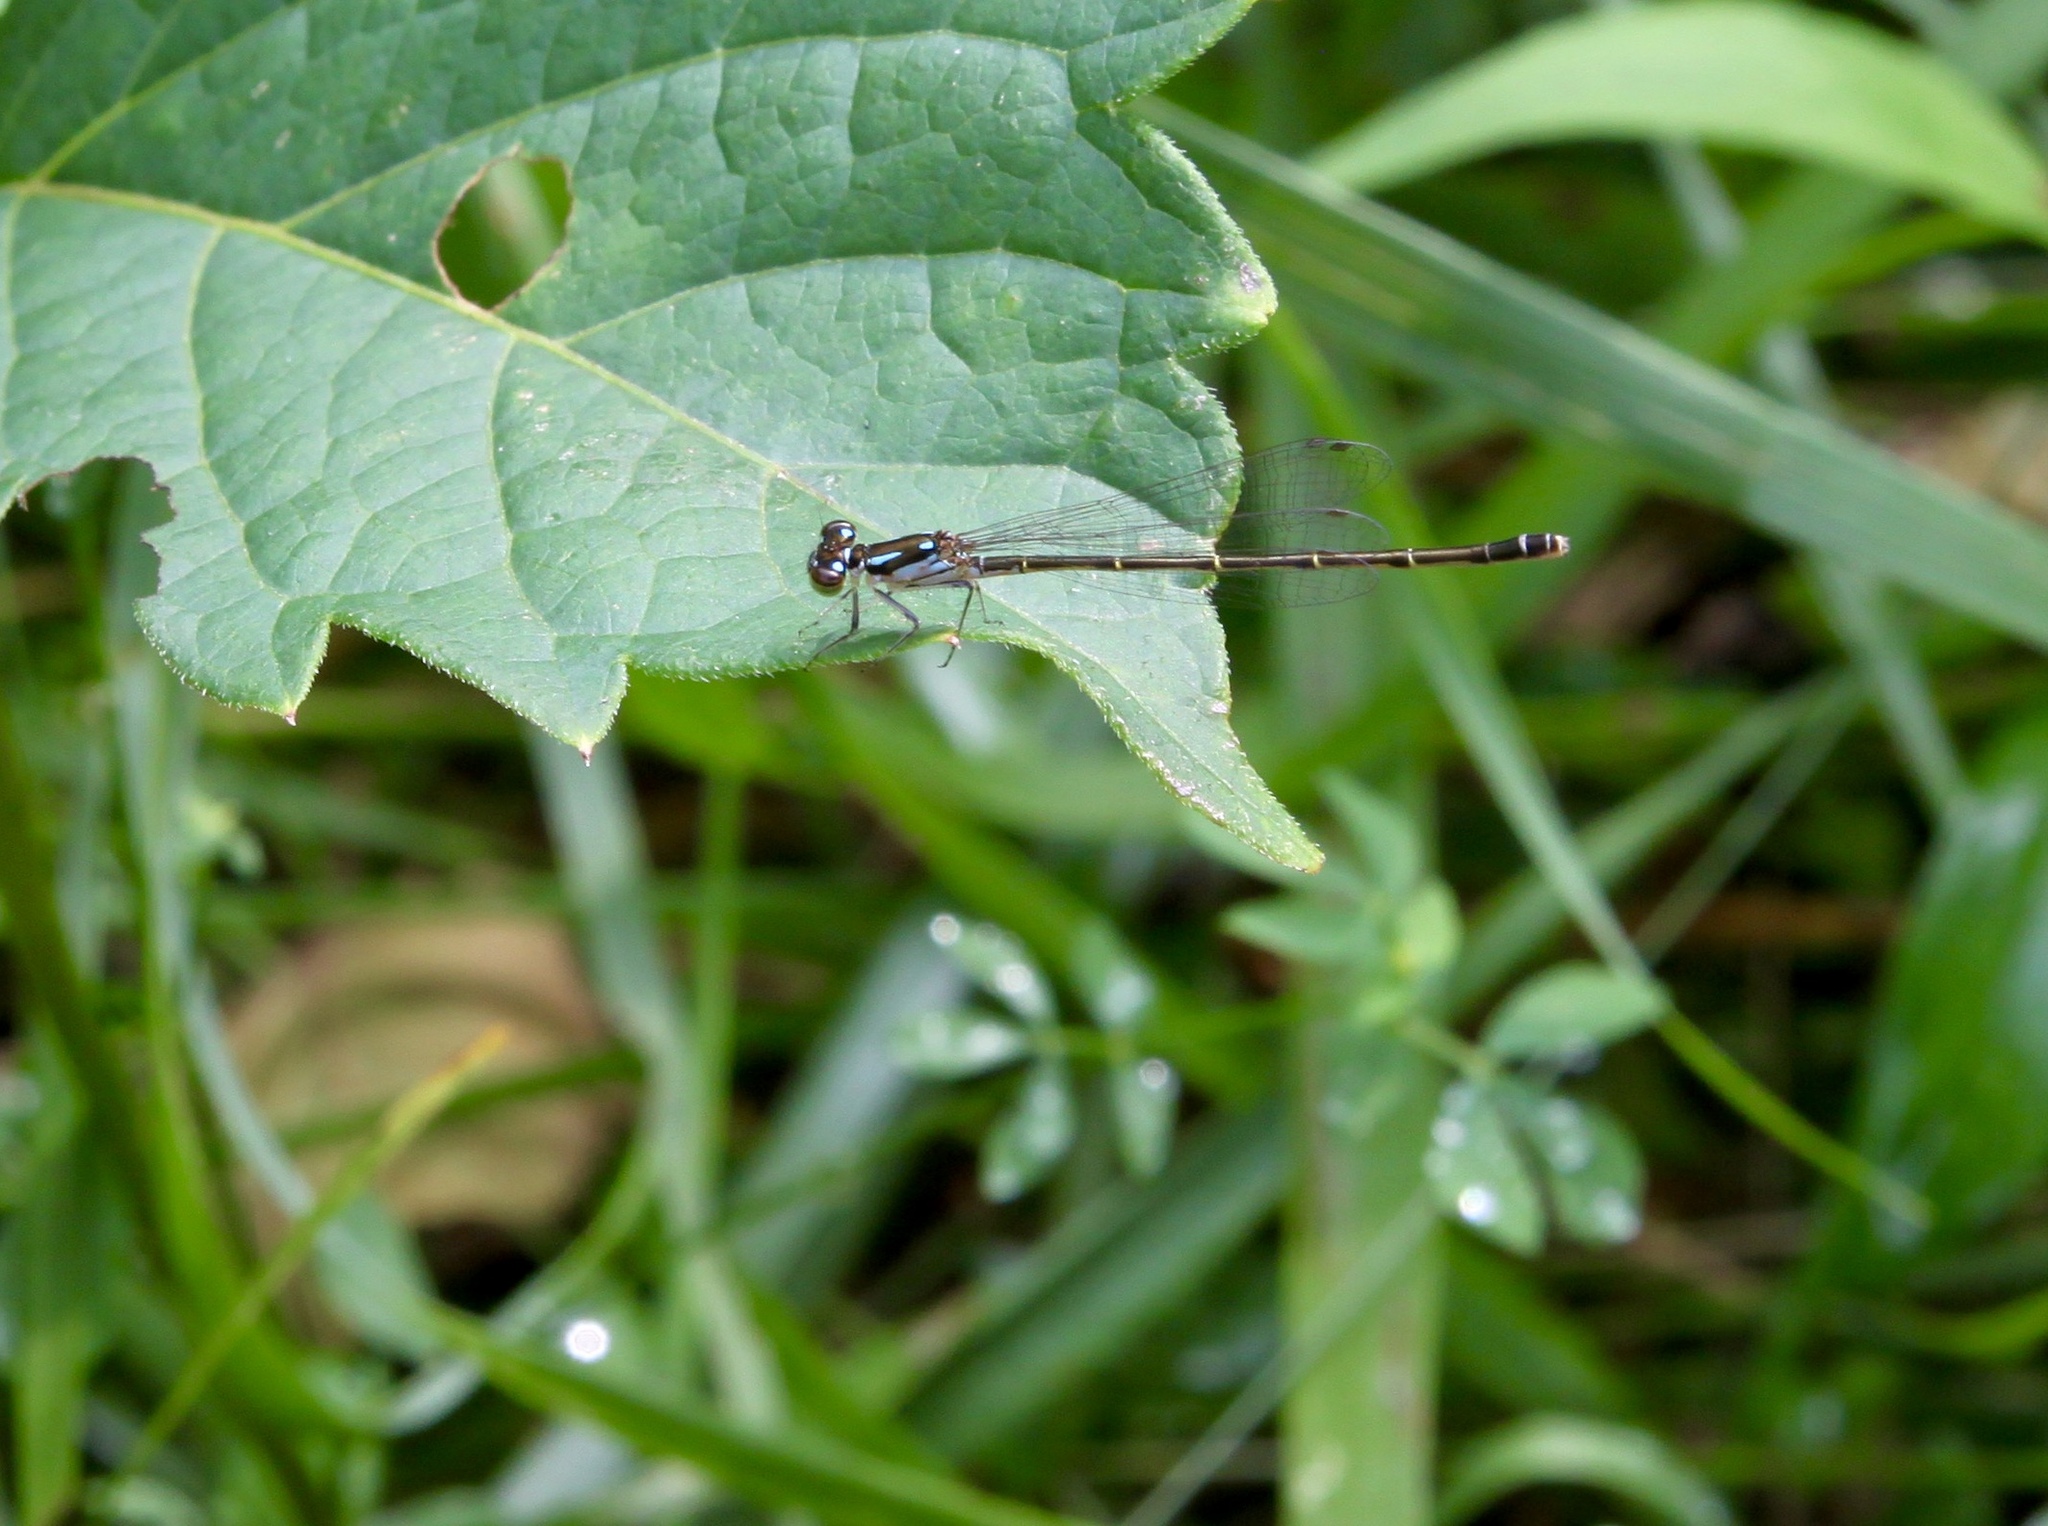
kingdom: Animalia
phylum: Arthropoda
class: Insecta
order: Odonata
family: Coenagrionidae
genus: Ischnura
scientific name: Ischnura posita
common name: Fragile forktail
